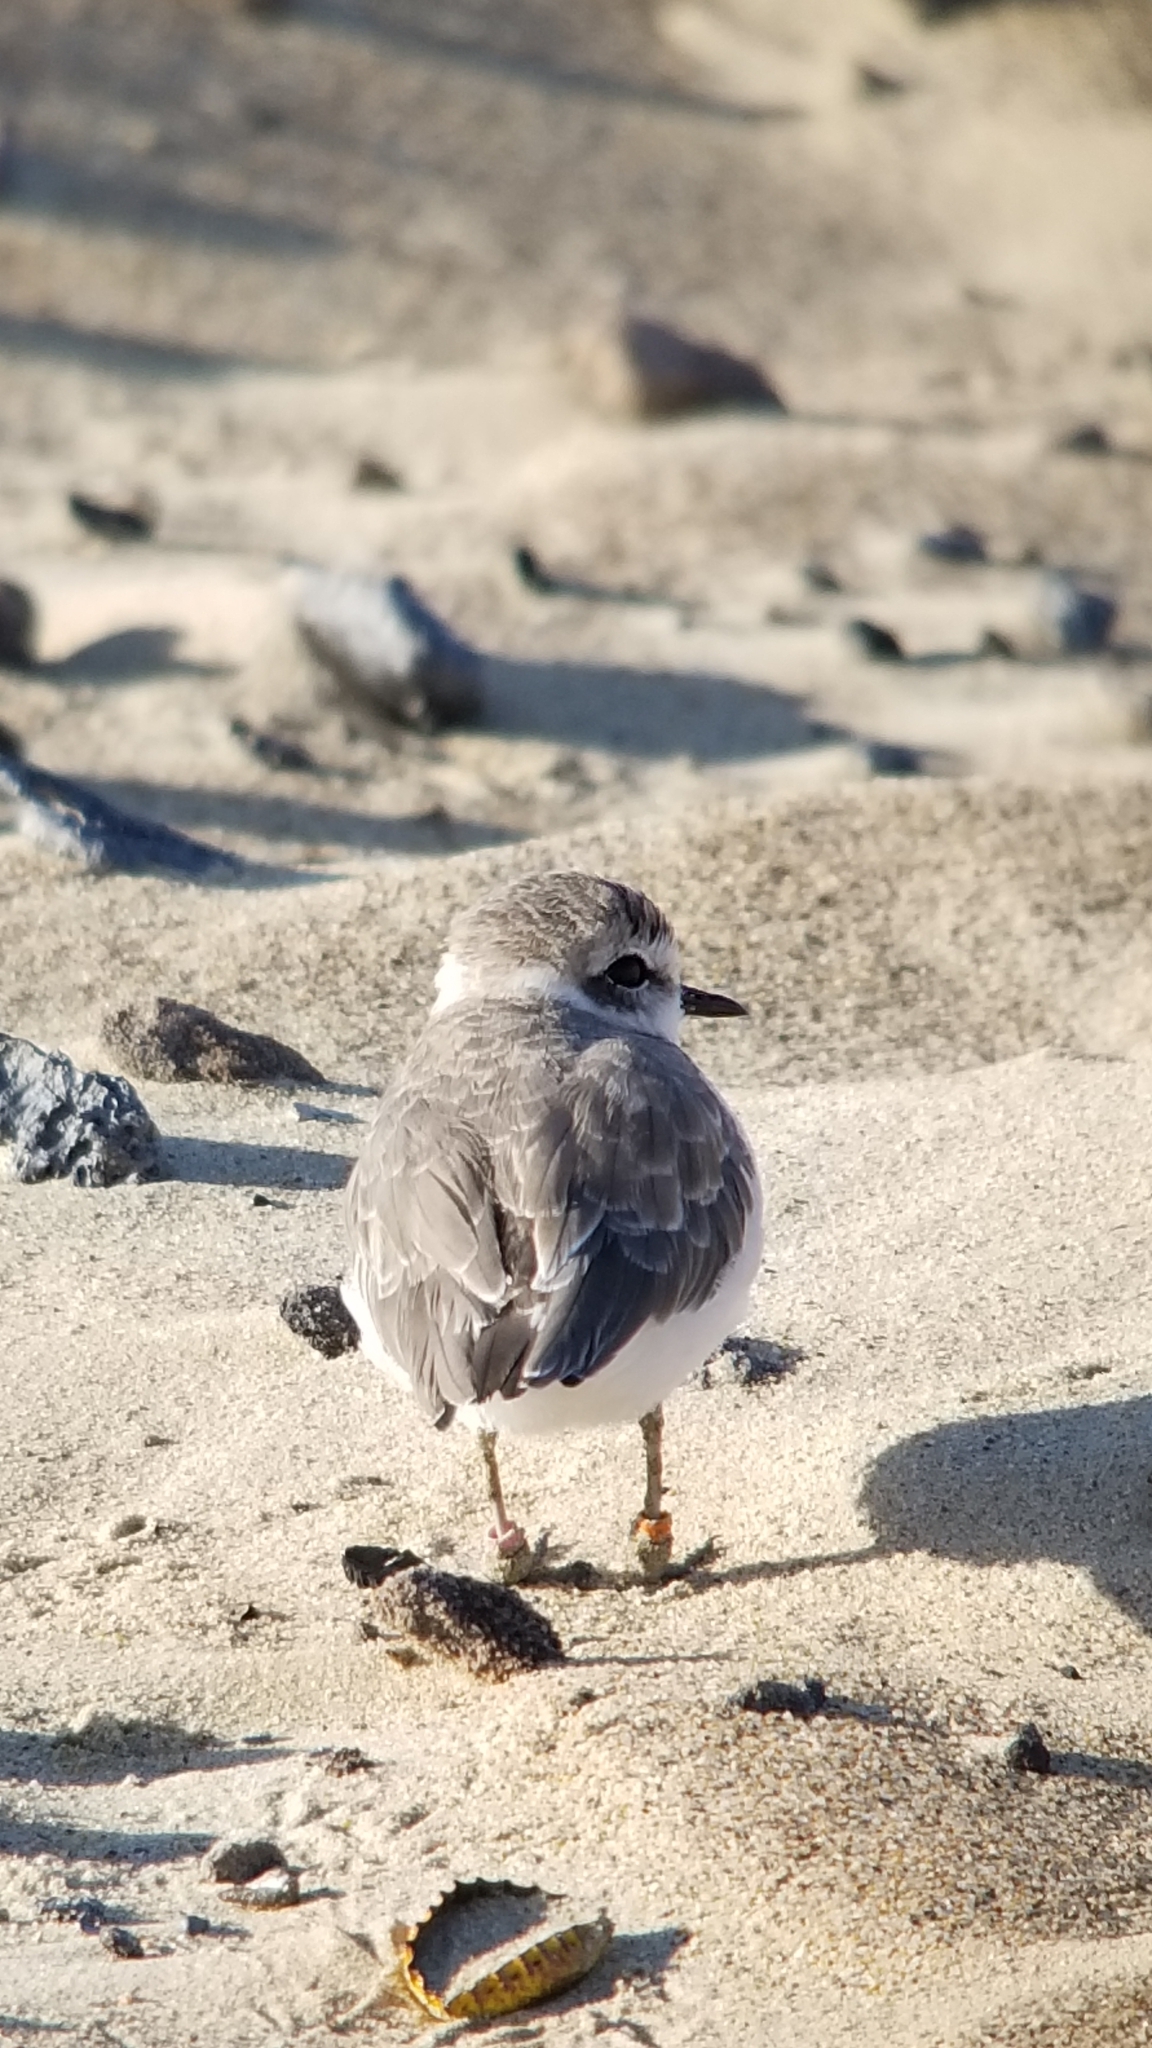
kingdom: Animalia
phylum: Chordata
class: Aves
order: Charadriiformes
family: Charadriidae
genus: Anarhynchus
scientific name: Anarhynchus
